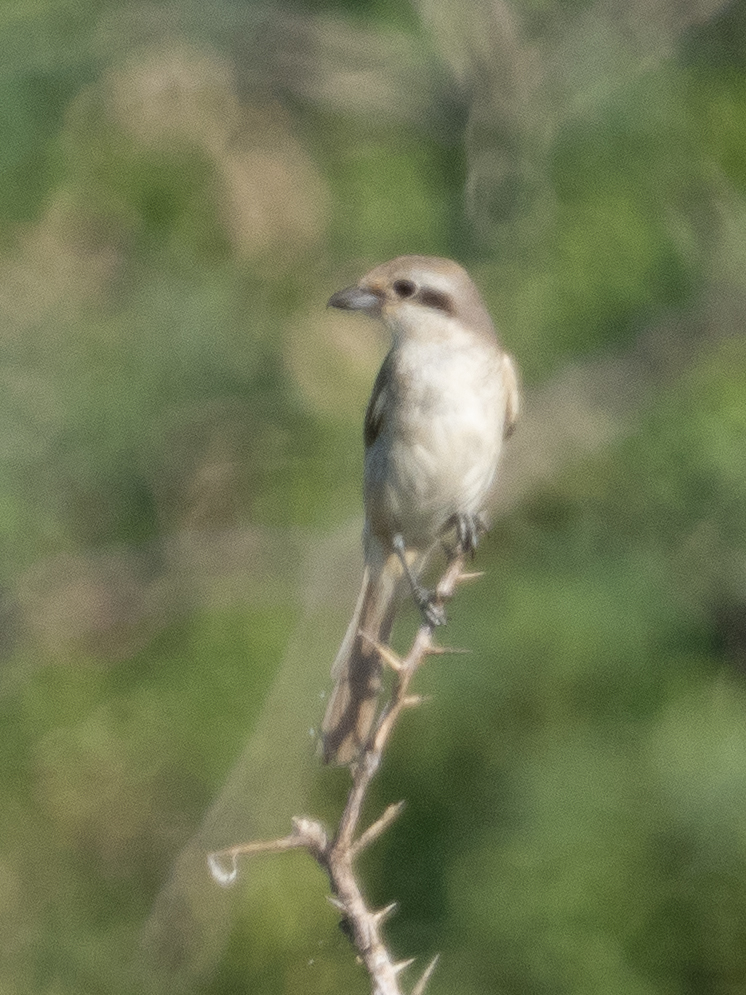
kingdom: Animalia
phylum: Chordata
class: Aves
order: Passeriformes
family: Laniidae
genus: Lanius
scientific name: Lanius cristatus
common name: Brown shrike
